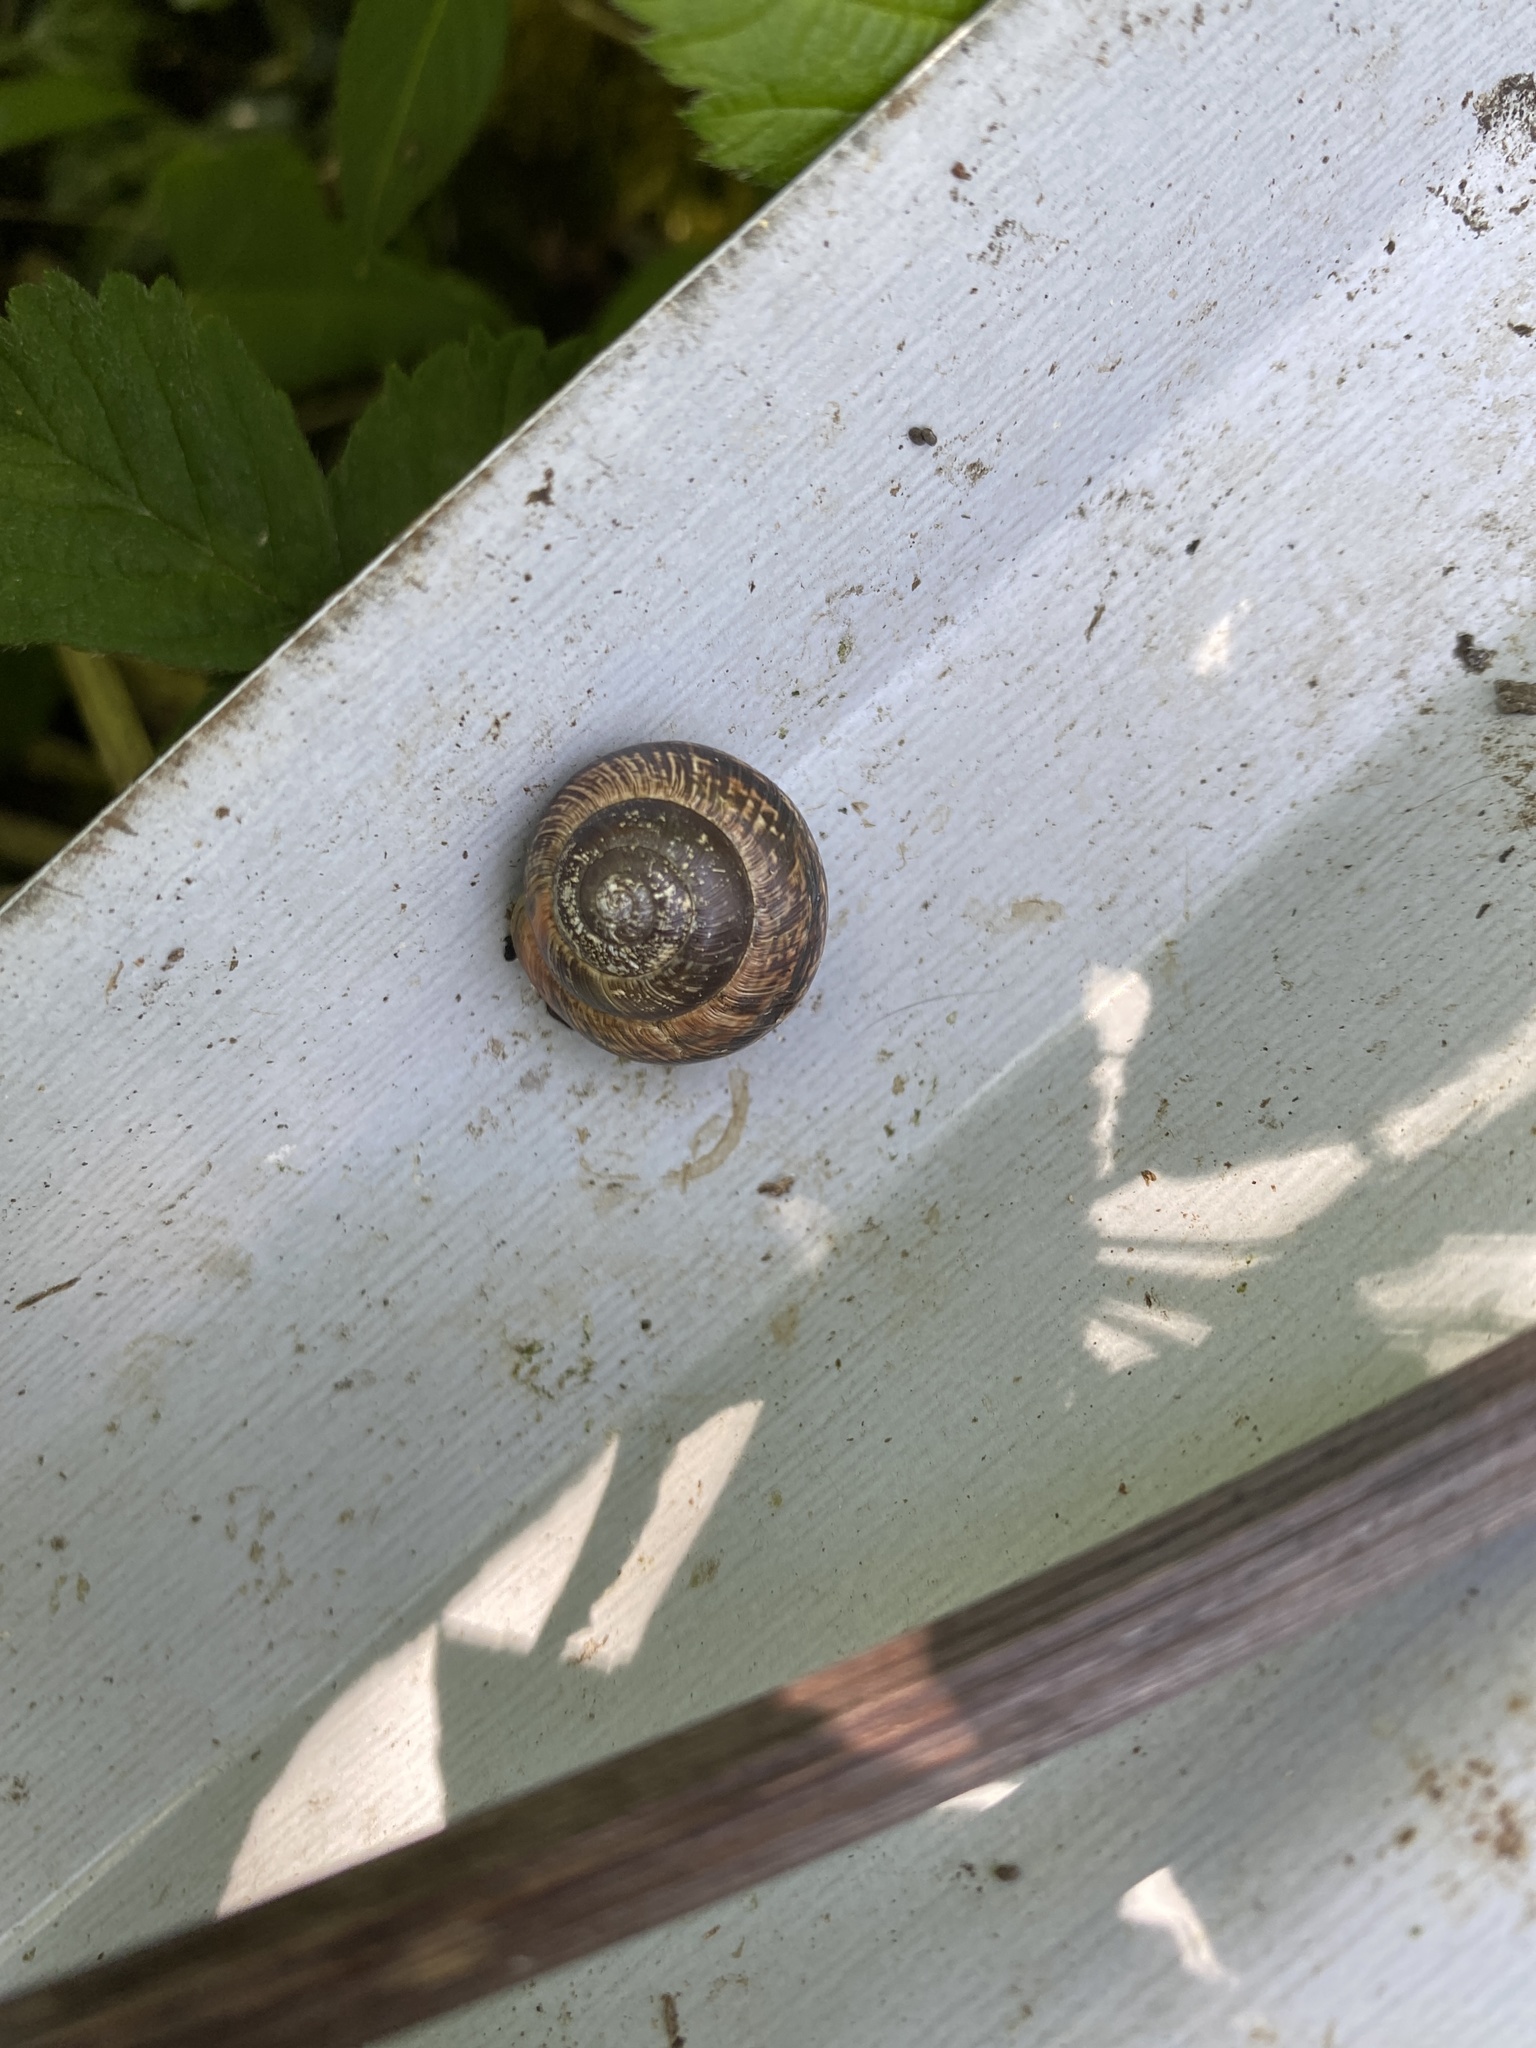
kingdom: Animalia
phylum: Mollusca
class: Gastropoda
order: Stylommatophora
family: Helicidae
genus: Arianta
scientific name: Arianta arbustorum
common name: Copse snail
